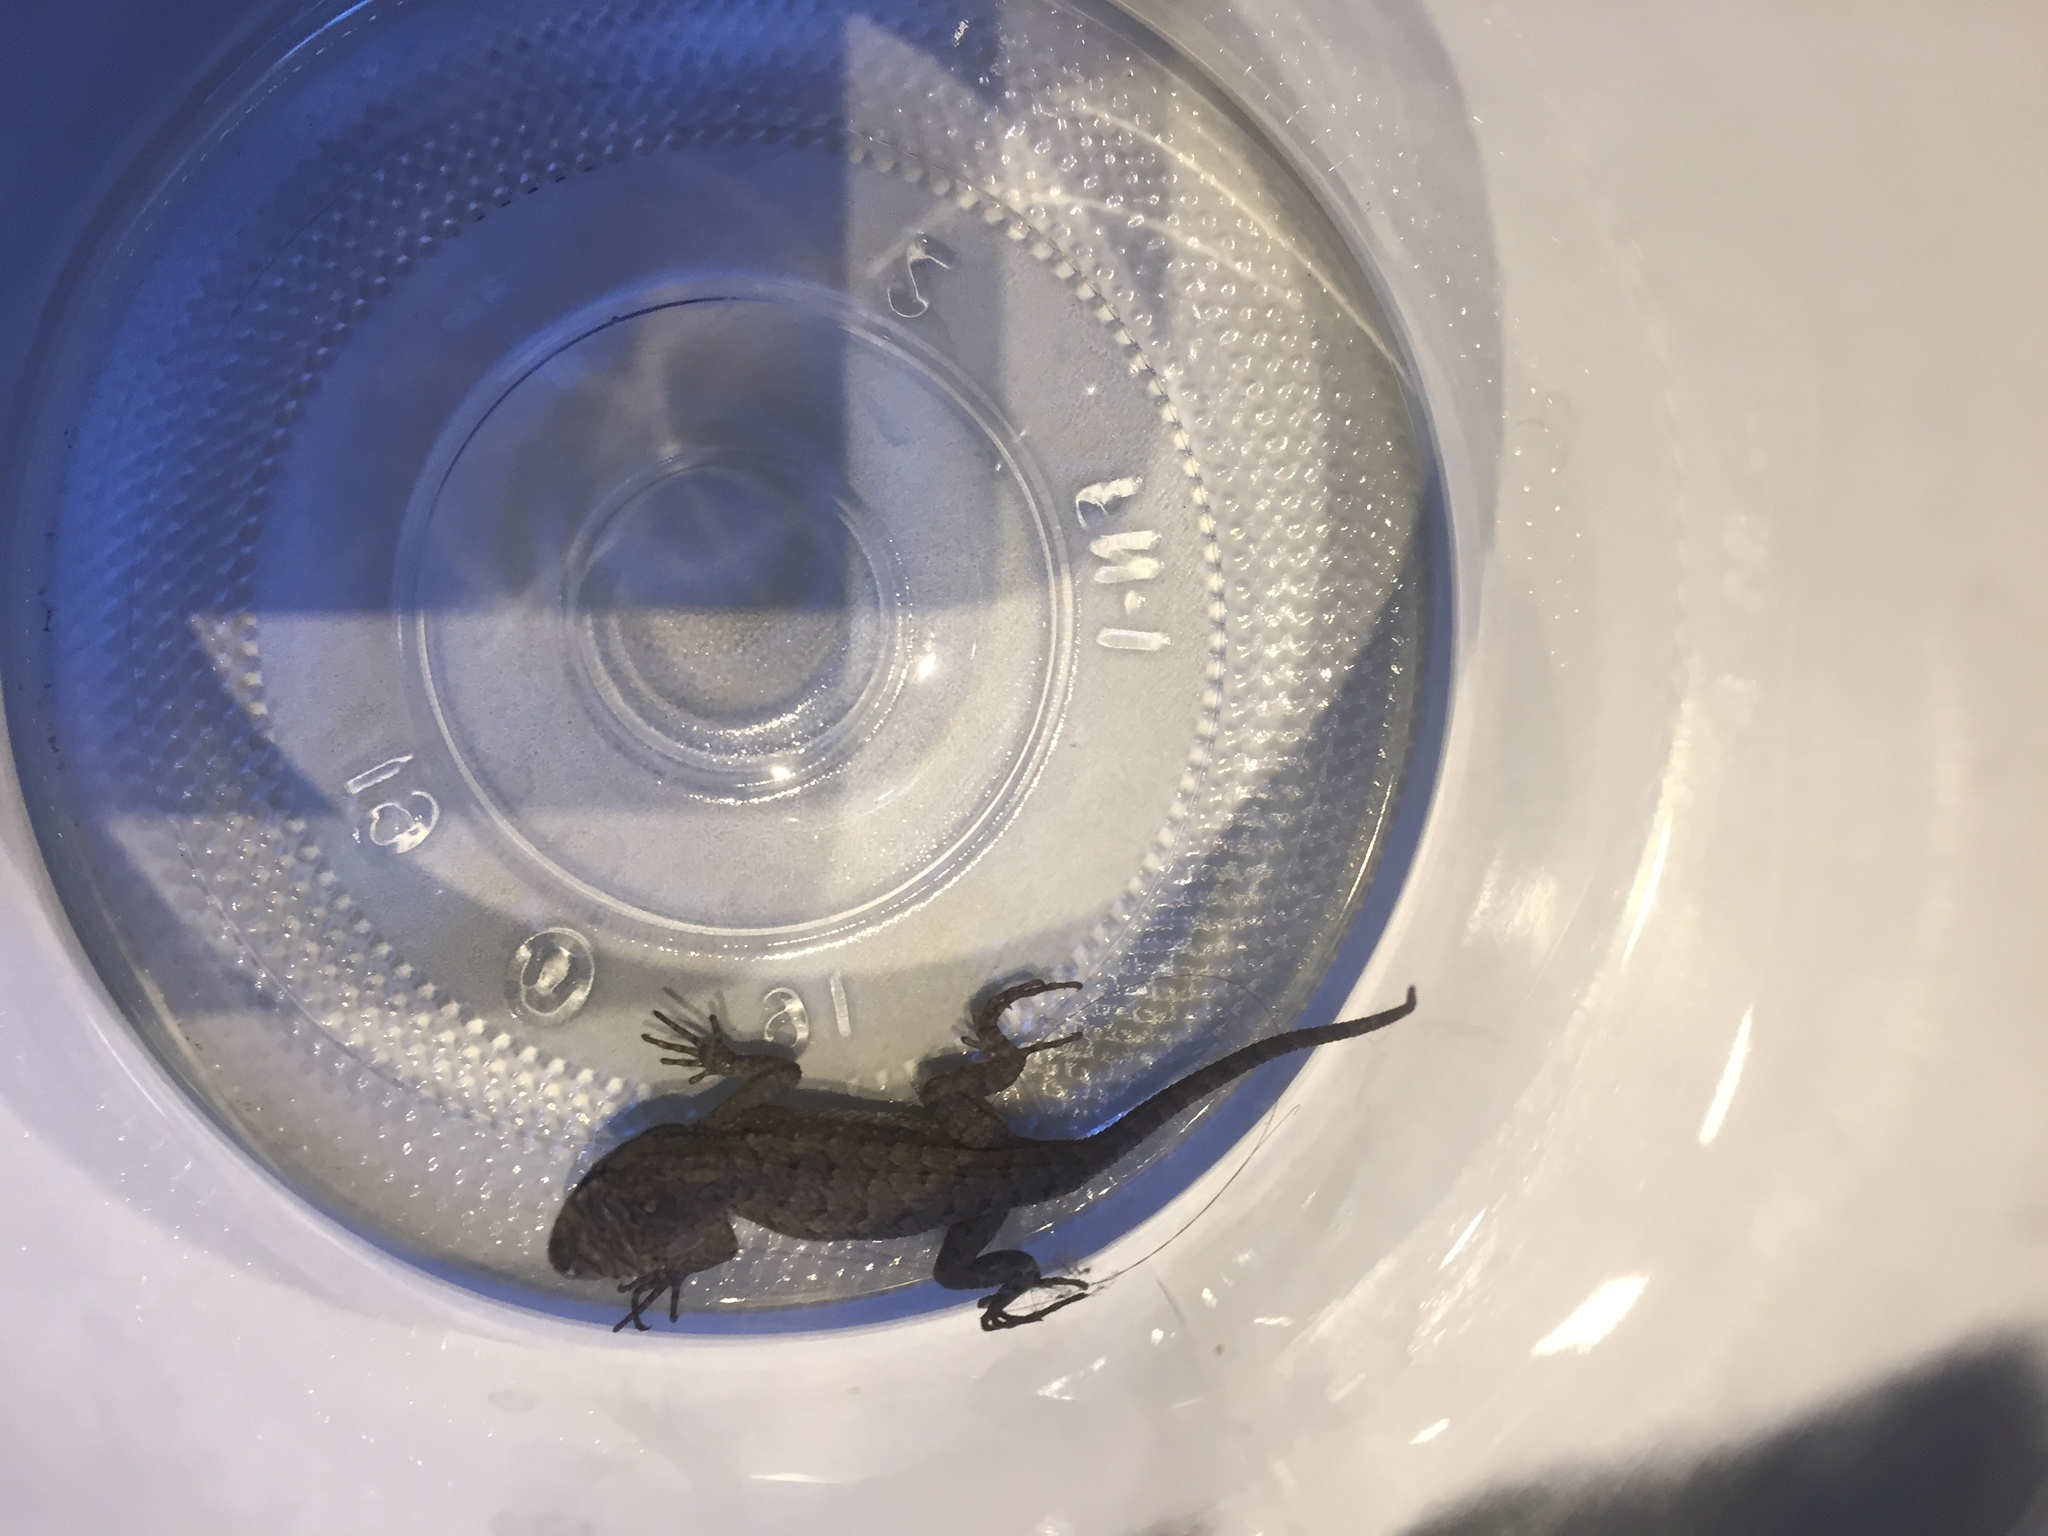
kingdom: Animalia
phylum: Chordata
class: Squamata
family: Phrynosomatidae
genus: Sceloporus
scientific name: Sceloporus occidentalis
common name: Western fence lizard
